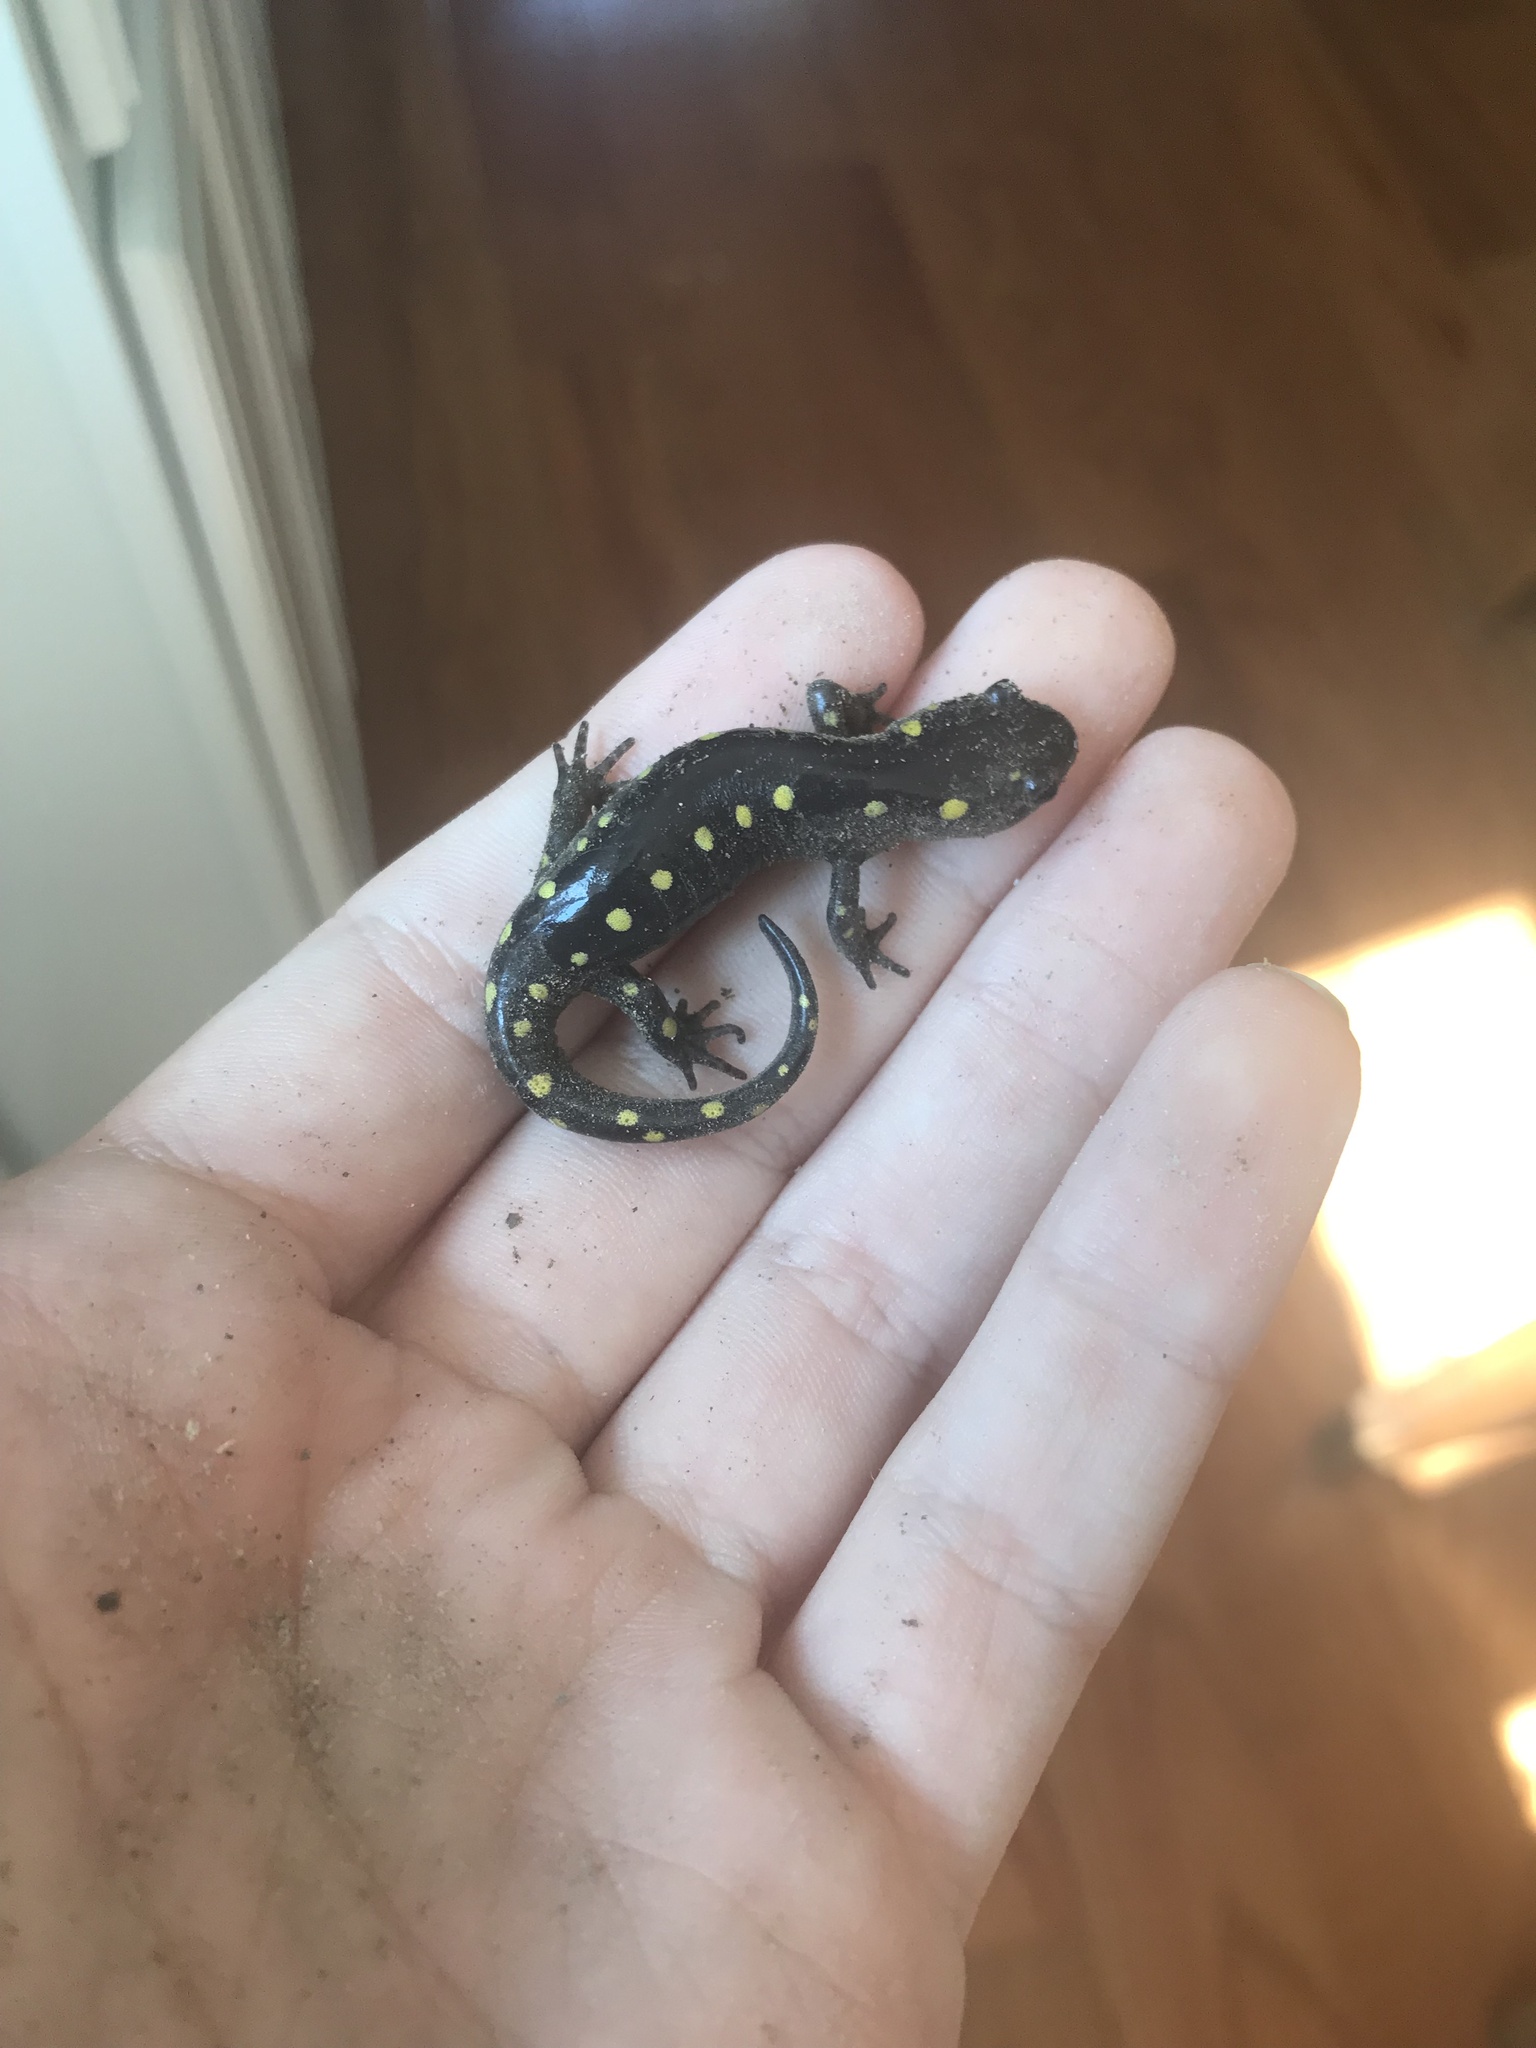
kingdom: Animalia
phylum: Chordata
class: Amphibia
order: Caudata
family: Ambystomatidae
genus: Ambystoma
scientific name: Ambystoma maculatum
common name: Spotted salamander
